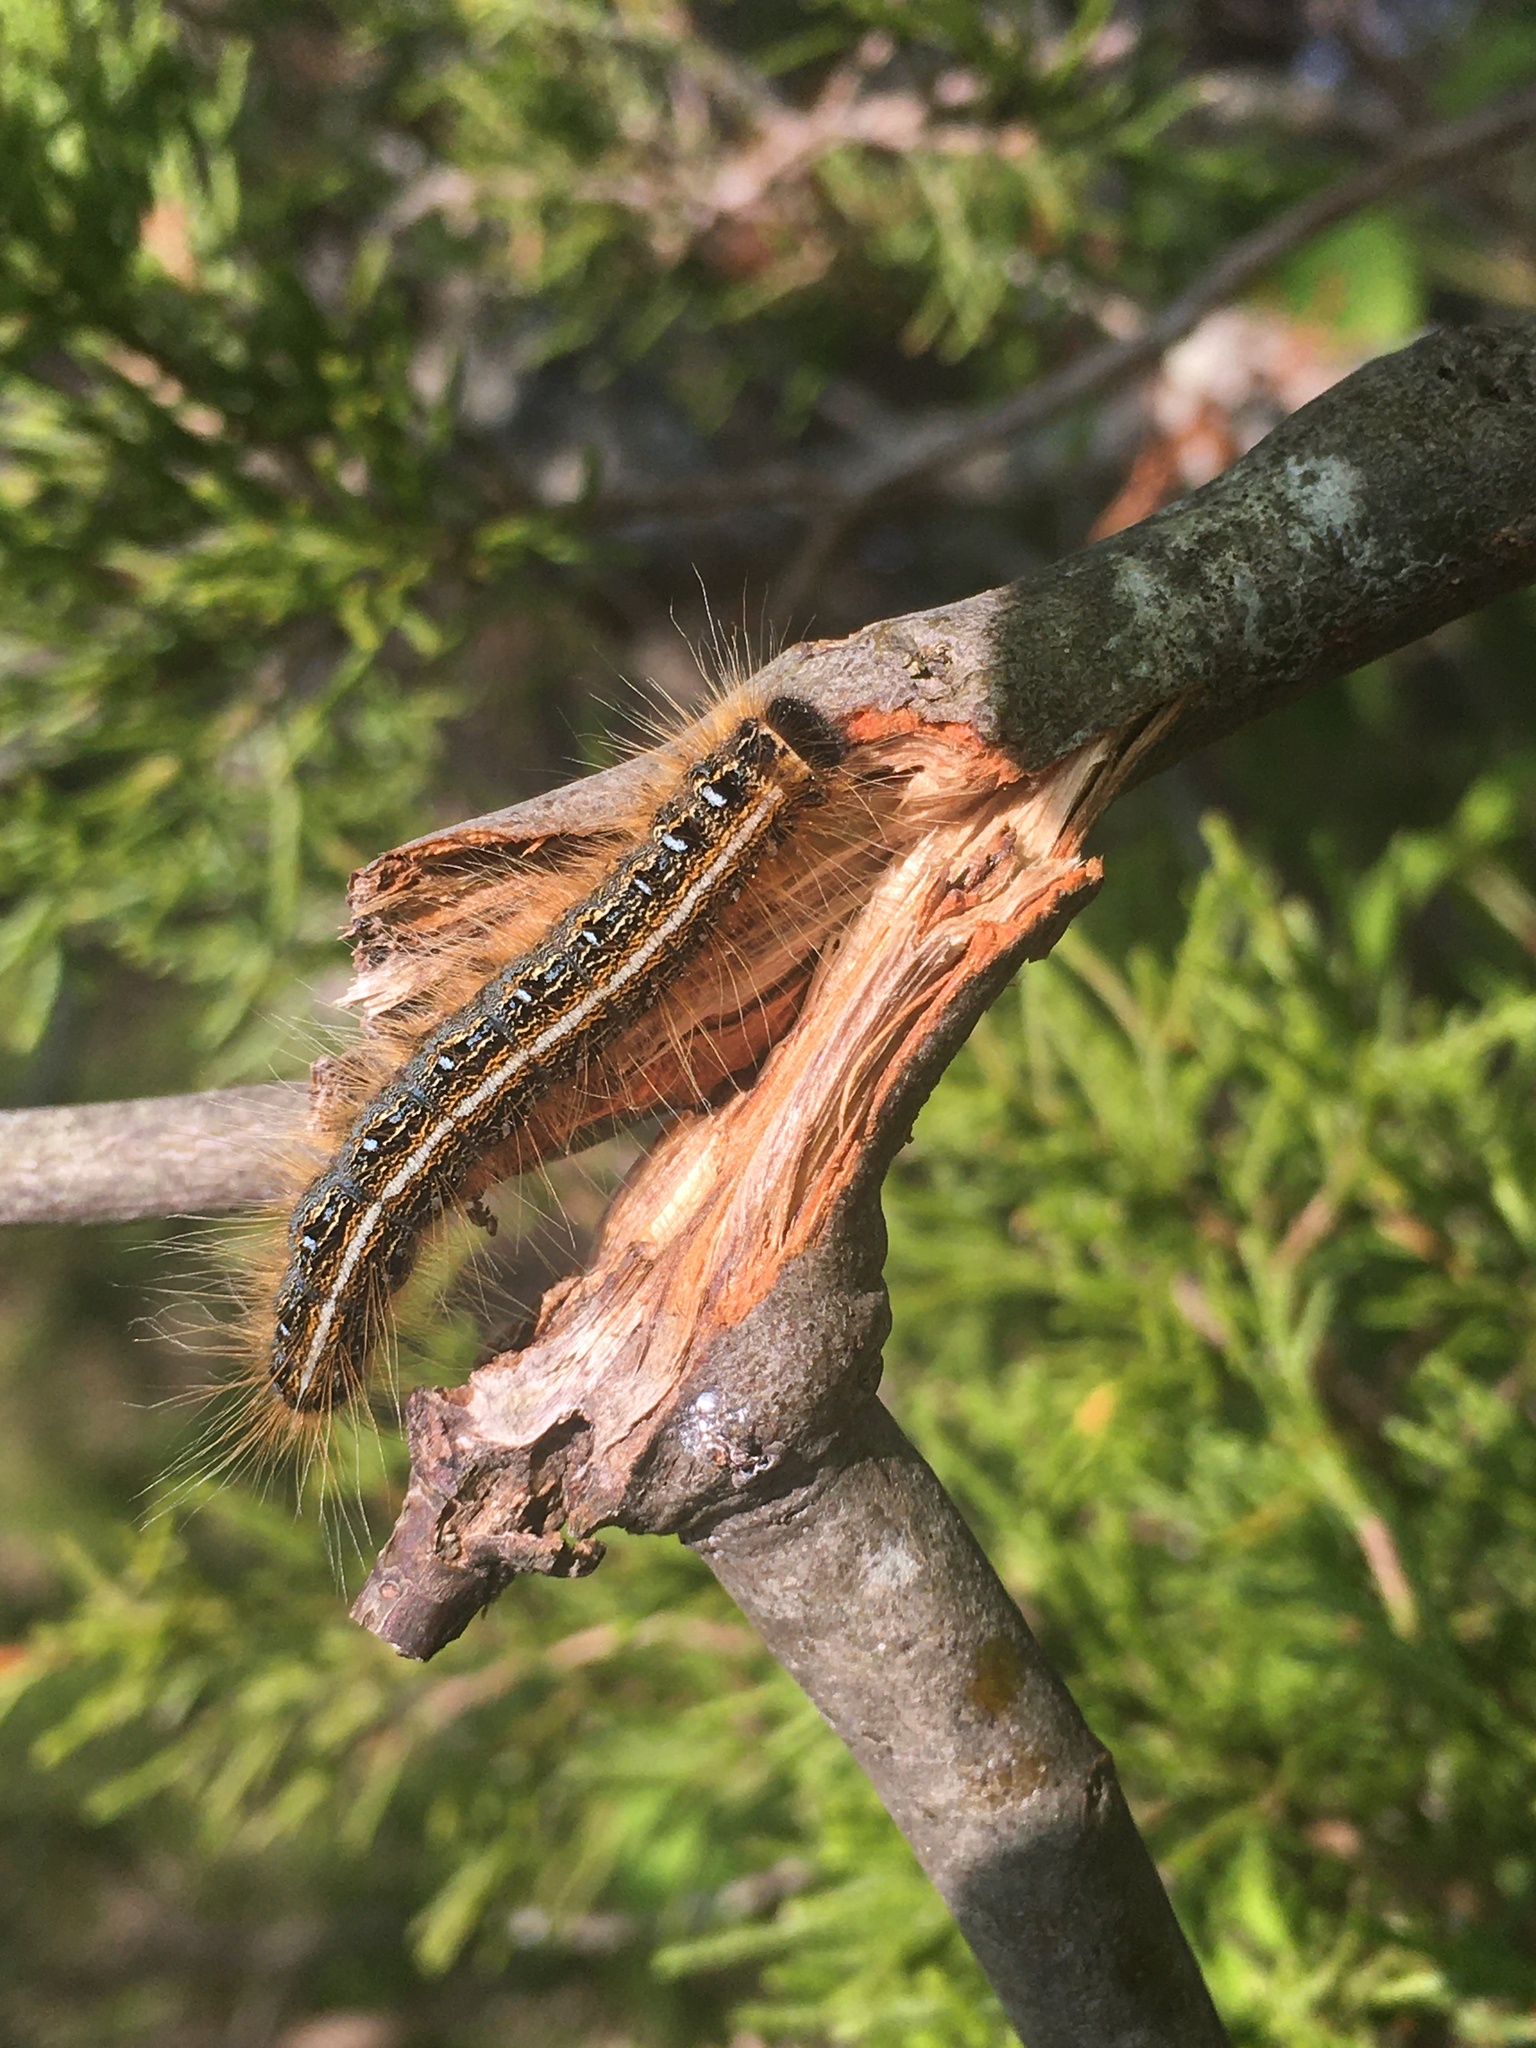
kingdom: Animalia
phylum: Arthropoda
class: Insecta
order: Lepidoptera
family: Lasiocampidae
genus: Malacosoma
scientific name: Malacosoma americana
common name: Eastern tent caterpillar moth
